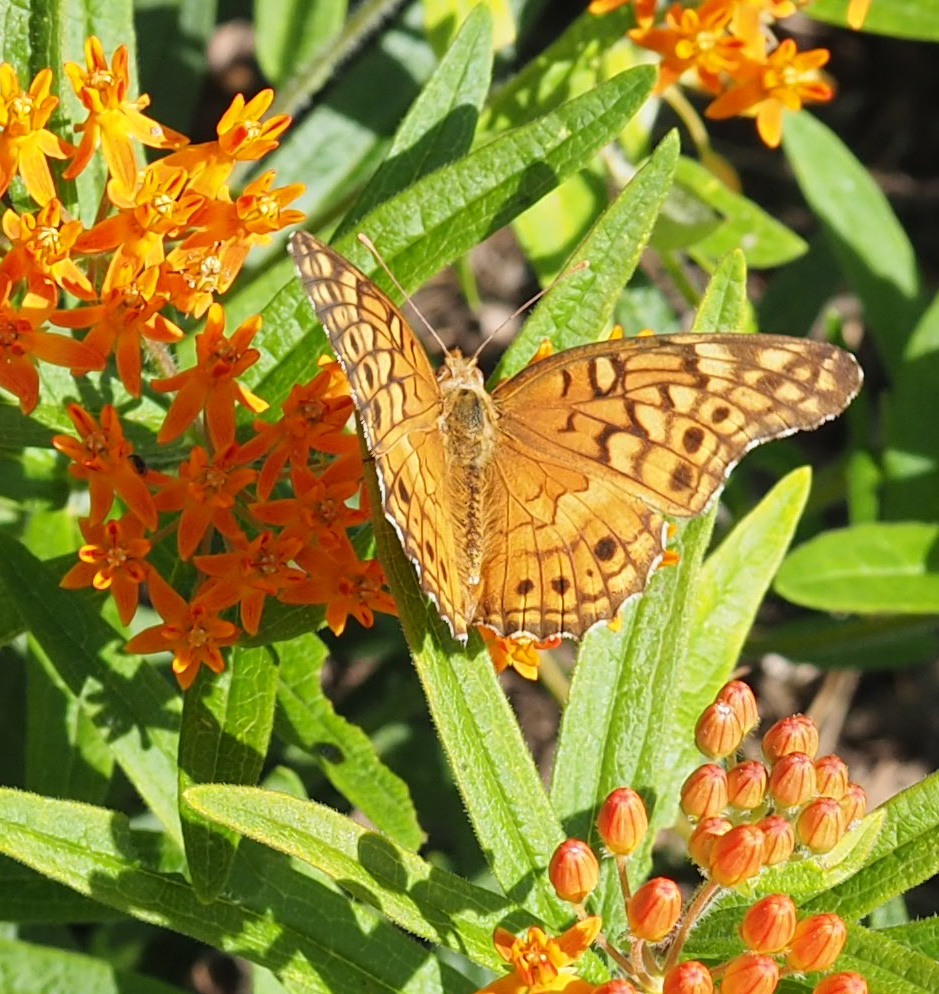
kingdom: Animalia
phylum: Arthropoda
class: Insecta
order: Lepidoptera
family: Nymphalidae
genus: Euptoieta
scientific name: Euptoieta claudia
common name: Variegated fritillary
